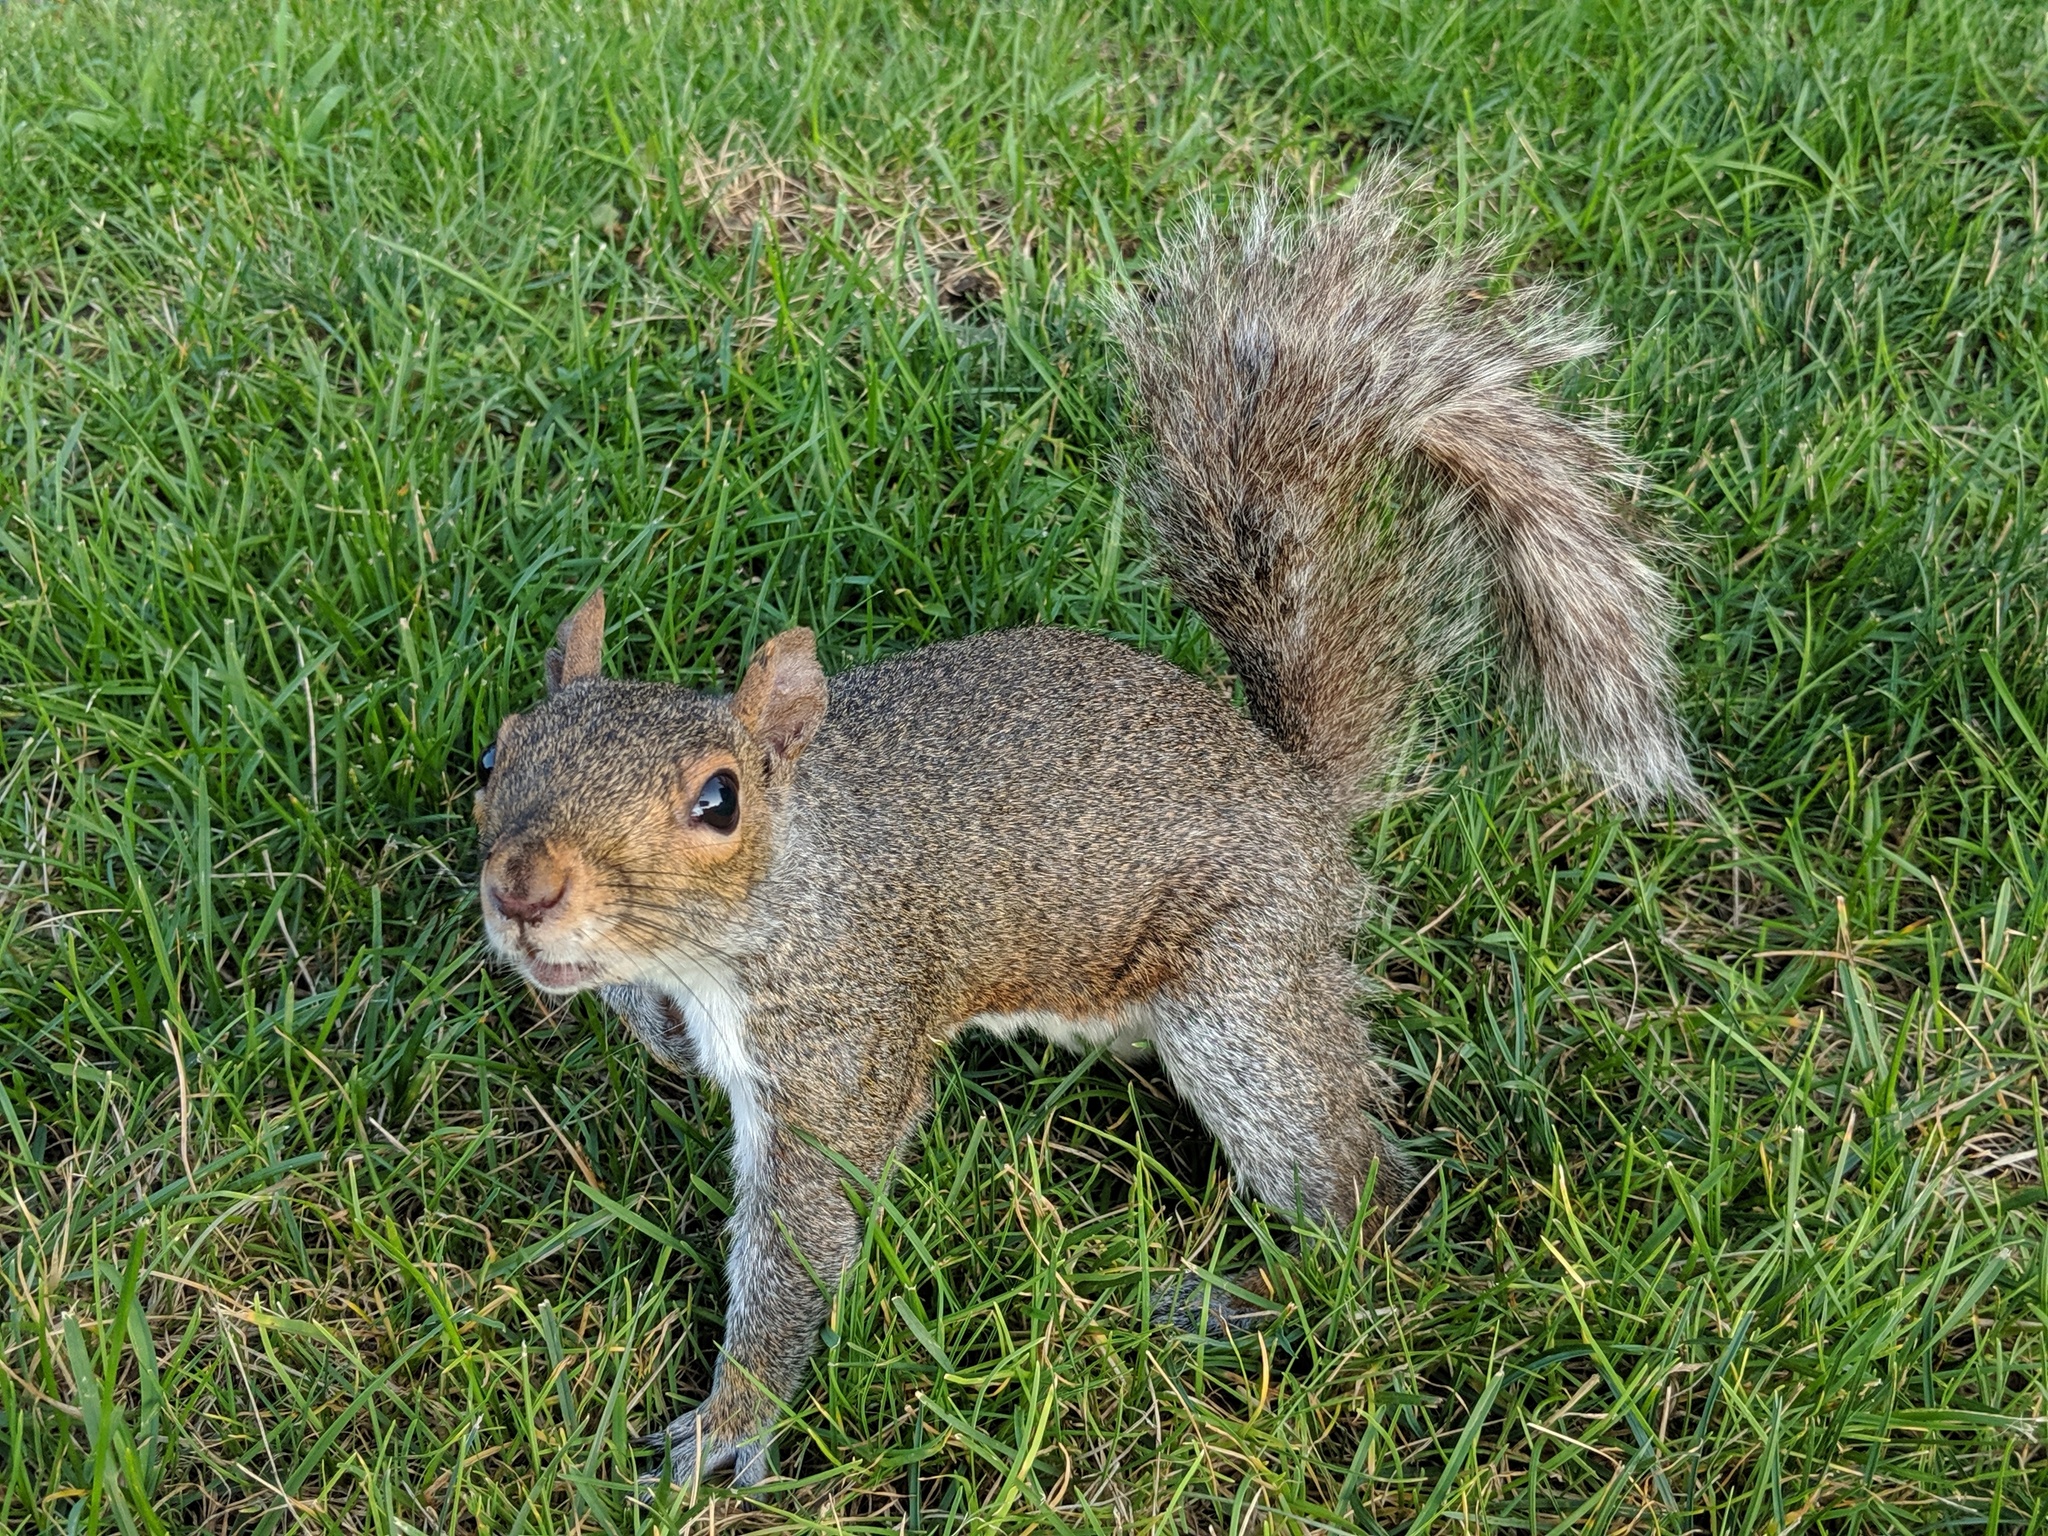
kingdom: Animalia
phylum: Chordata
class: Mammalia
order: Rodentia
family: Sciuridae
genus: Sciurus
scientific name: Sciurus carolinensis
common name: Eastern gray squirrel
